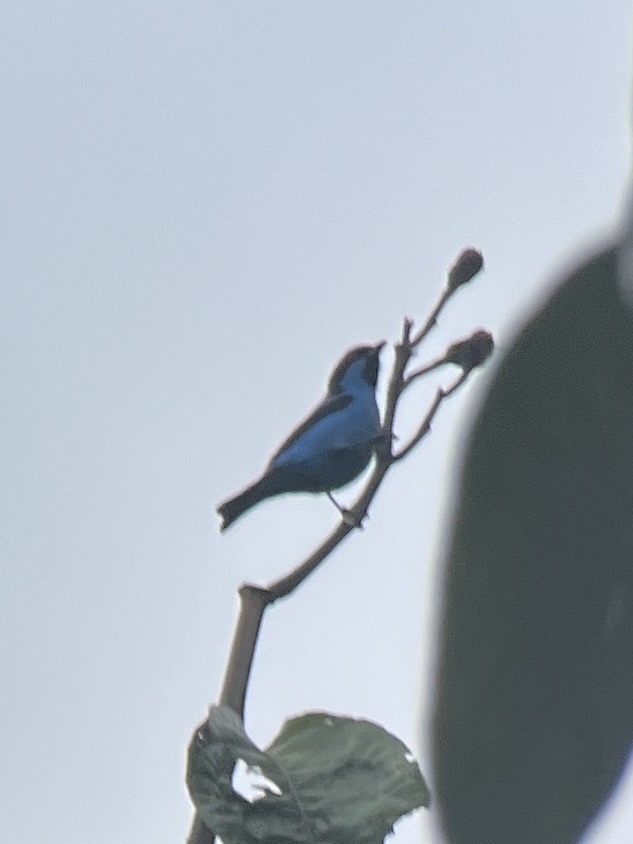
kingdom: Animalia
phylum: Chordata
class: Aves
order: Passeriformes
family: Thraupidae
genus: Dacnis
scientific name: Dacnis hartlaubi
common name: Turquoise dacnis
